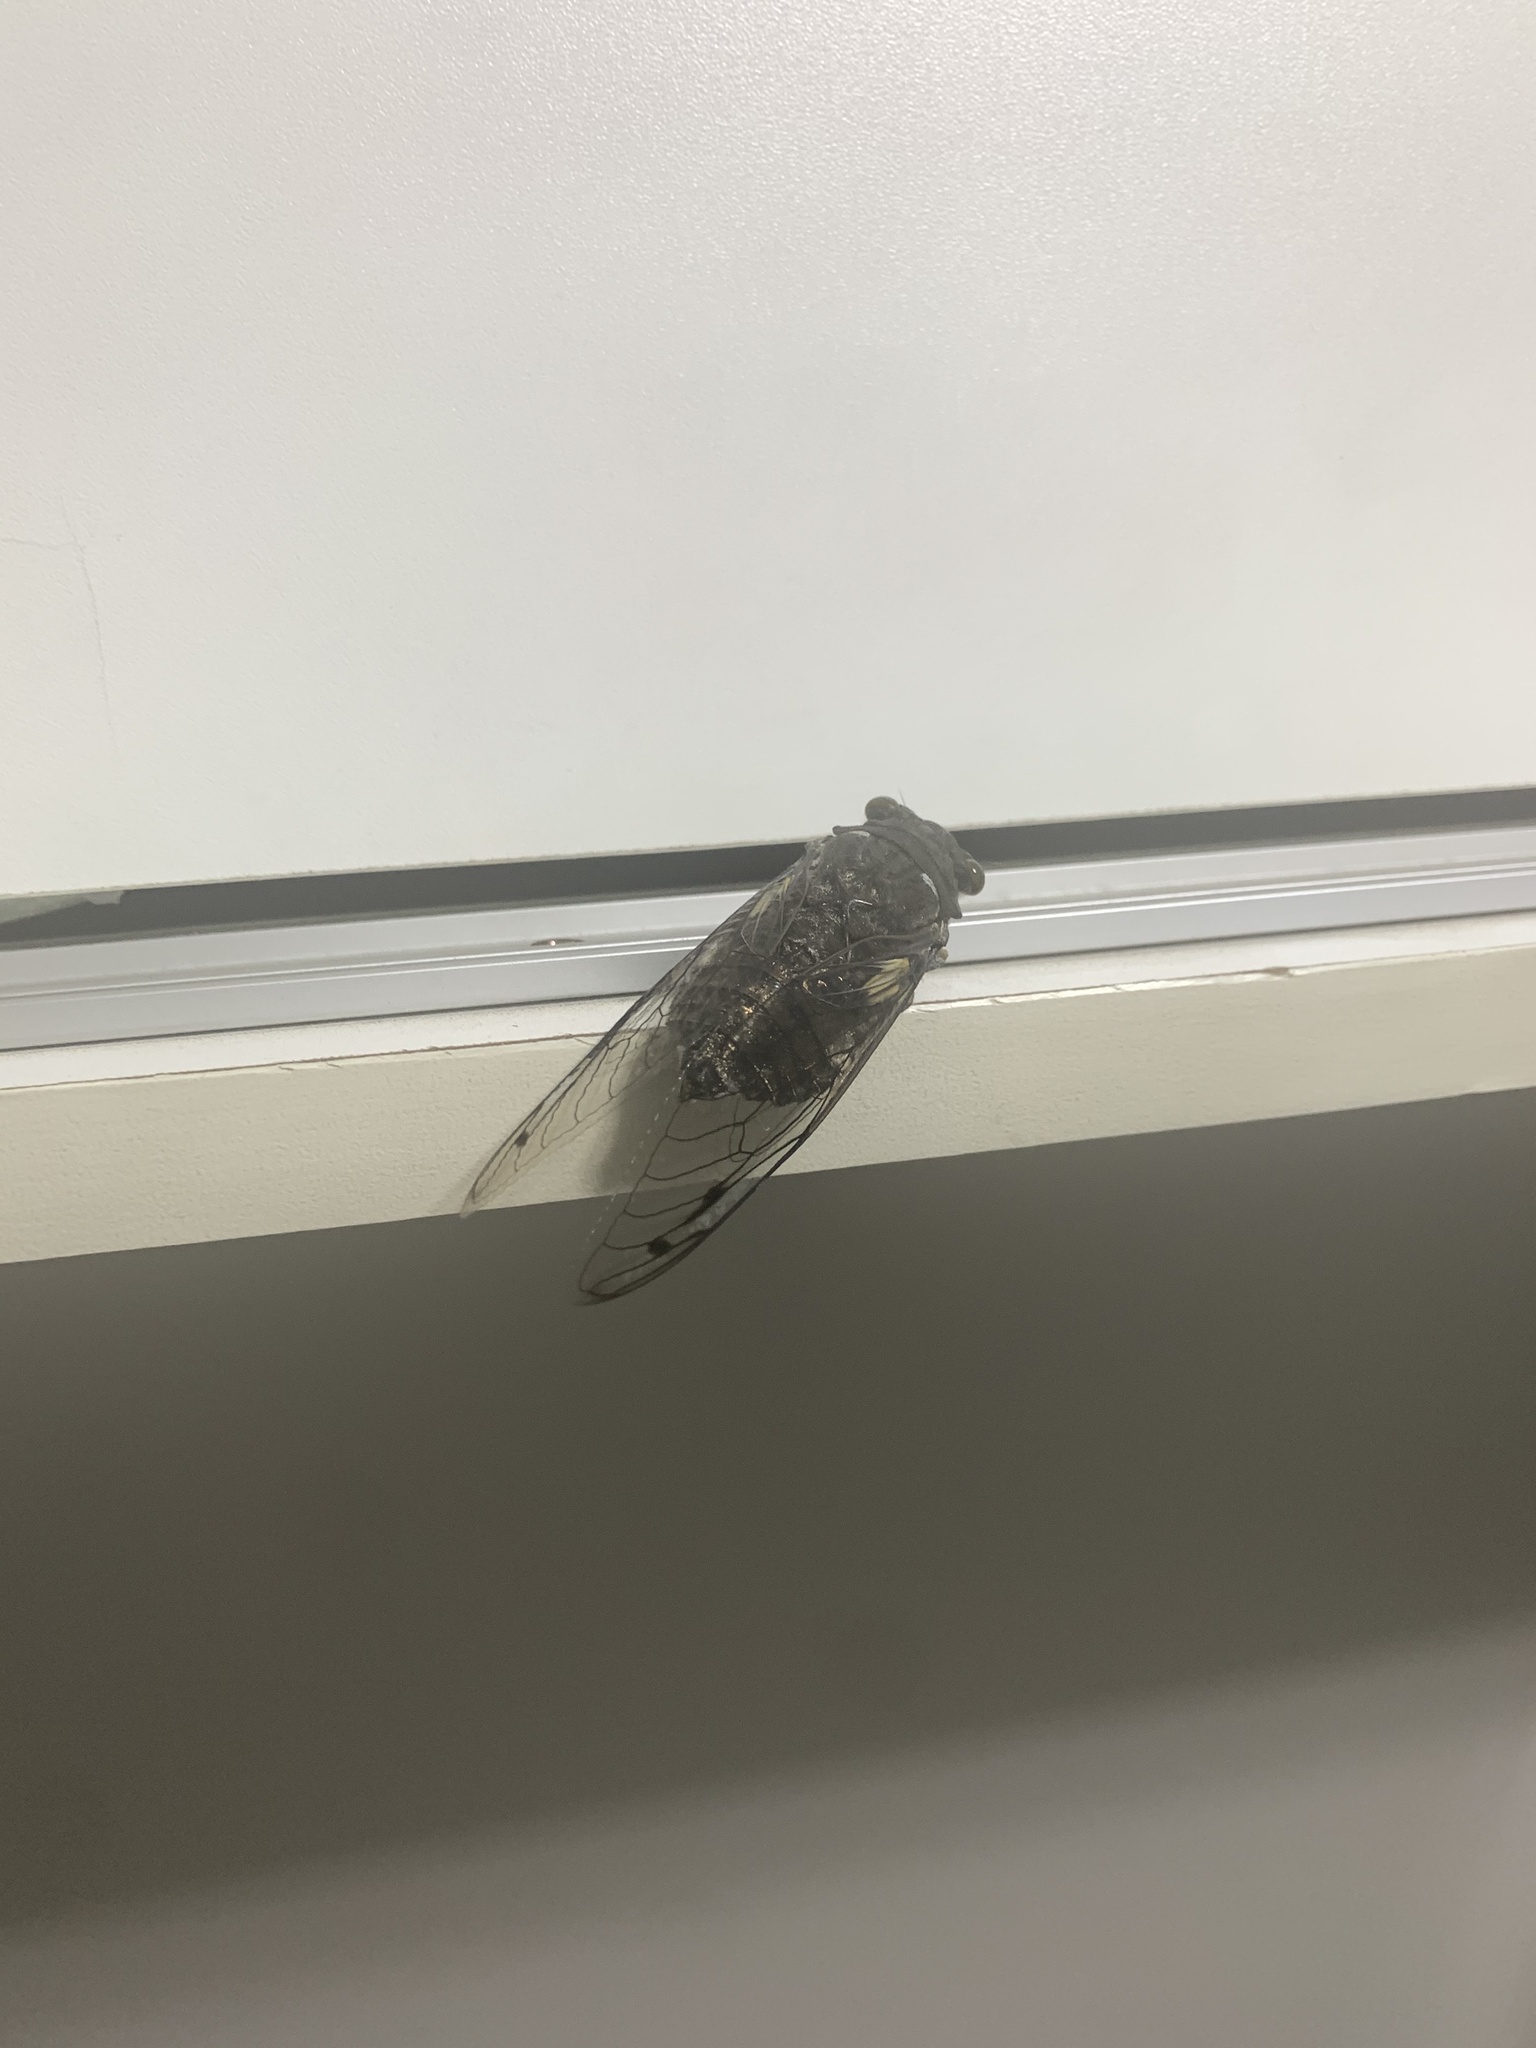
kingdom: Animalia
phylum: Arthropoda
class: Insecta
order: Hemiptera
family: Cicadidae
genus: Quesada
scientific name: Quesada gigas
